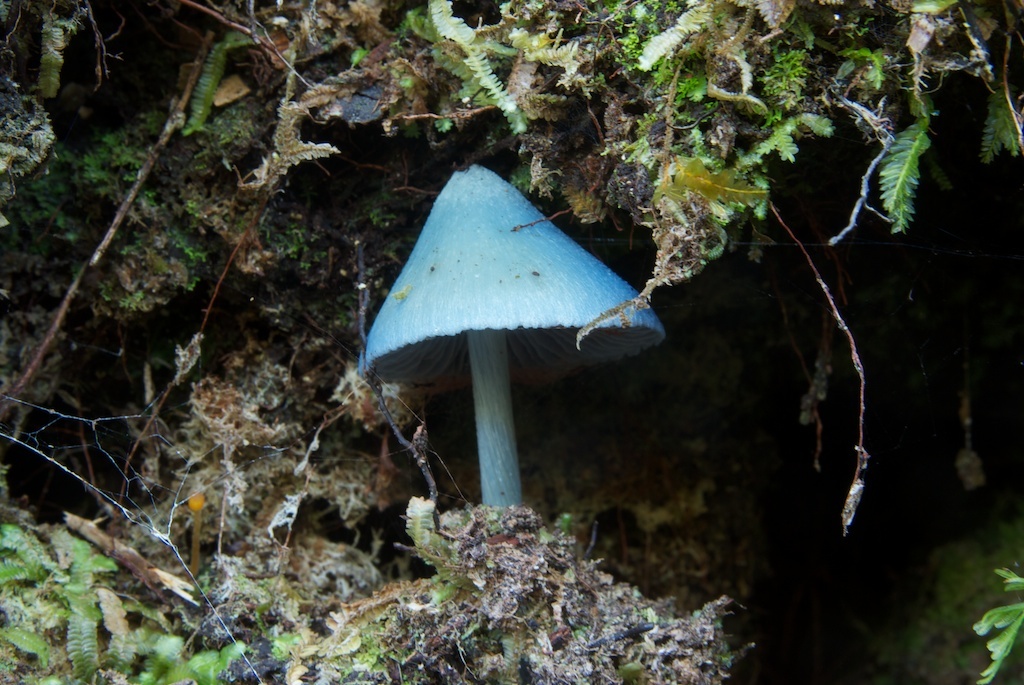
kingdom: Fungi
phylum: Basidiomycota
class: Agaricomycetes
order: Agaricales
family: Entolomataceae
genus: Entoloma
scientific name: Entoloma hochstetteri
